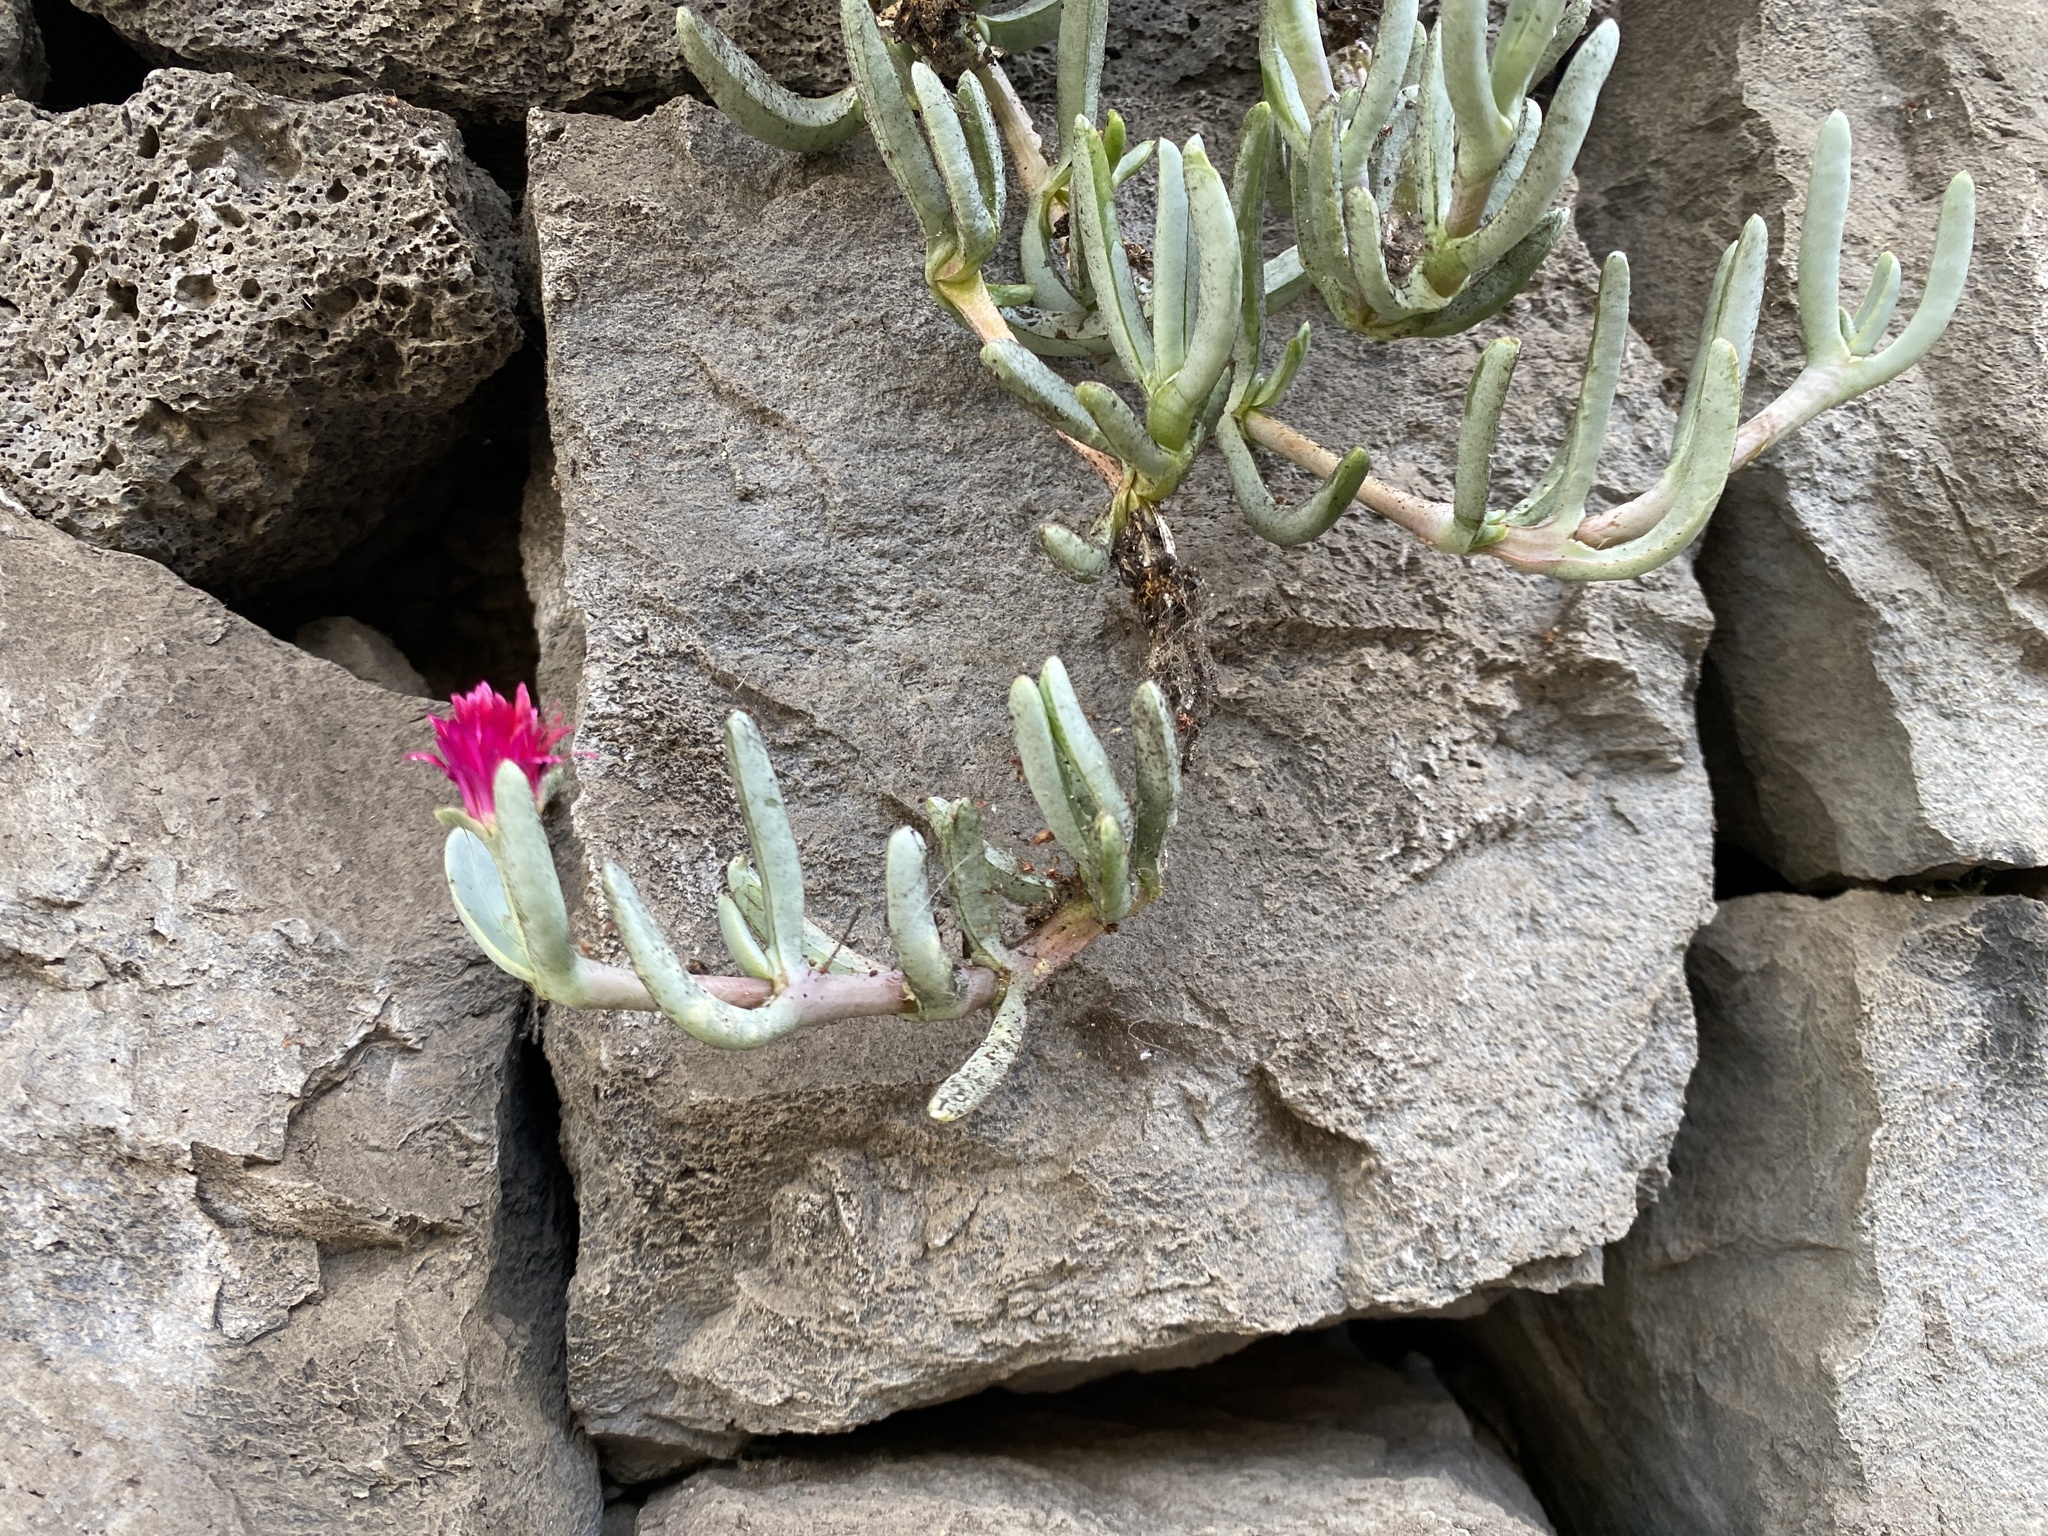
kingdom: Plantae
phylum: Tracheophyta
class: Magnoliopsida
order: Caryophyllales
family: Aizoaceae
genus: Malephora
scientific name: Malephora crocea
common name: Coppery mesemb
